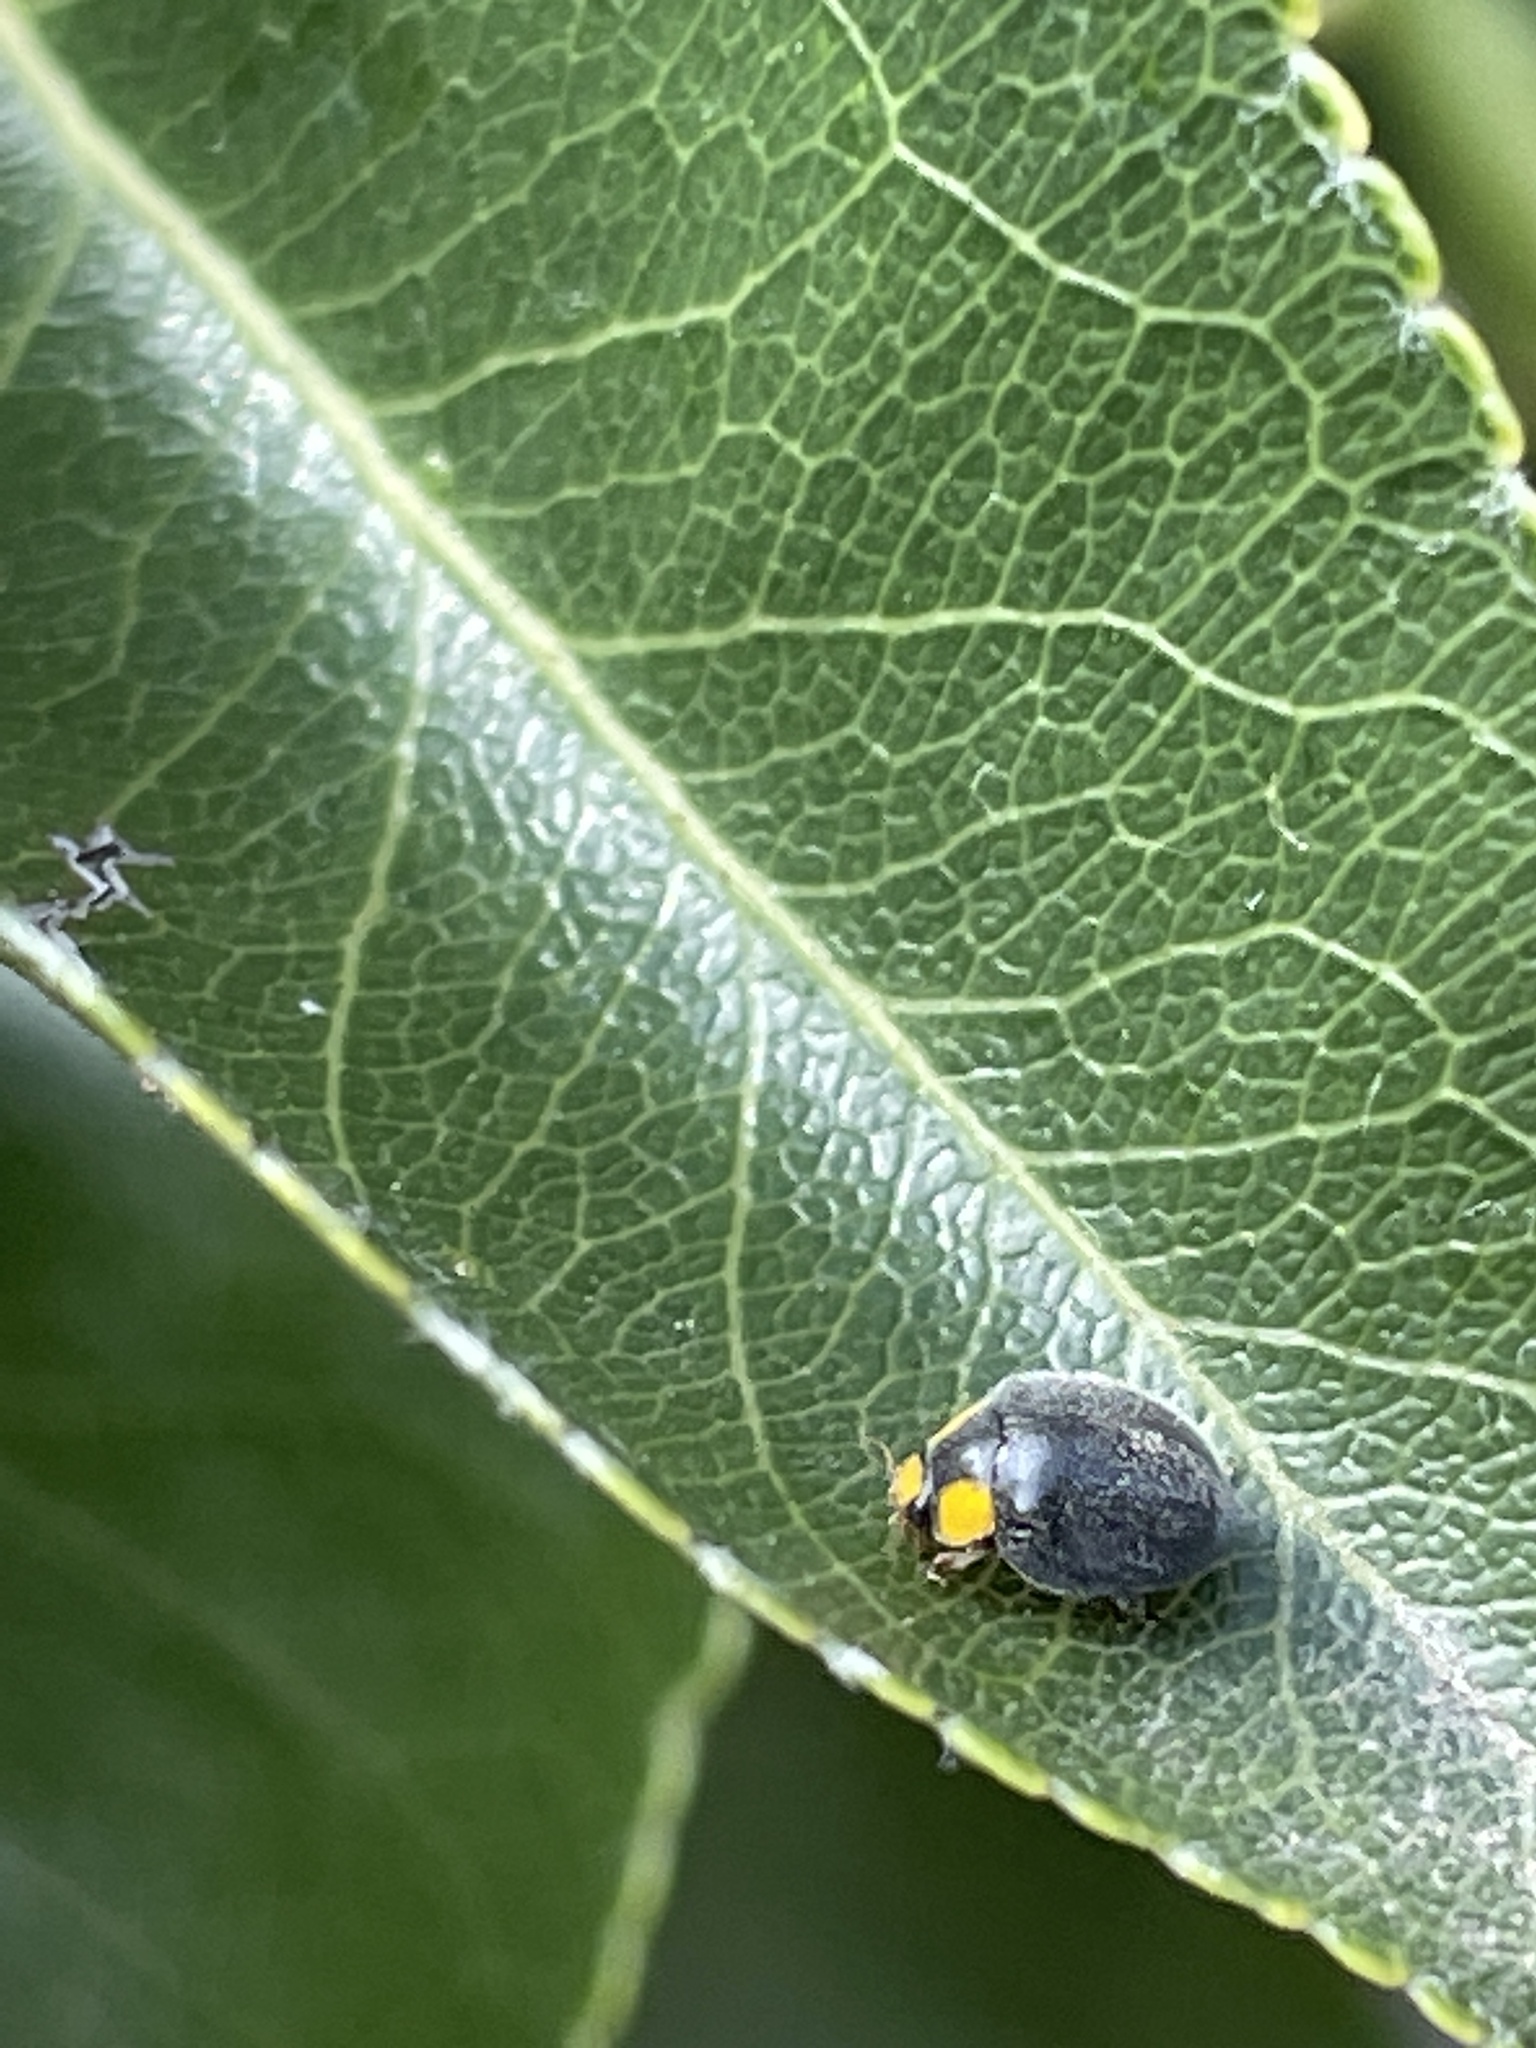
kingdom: Animalia
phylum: Arthropoda
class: Insecta
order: Coleoptera
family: Coccinellidae
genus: Scymnodes
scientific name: Scymnodes lividigaster
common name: Yellowshouldered lady beetle
